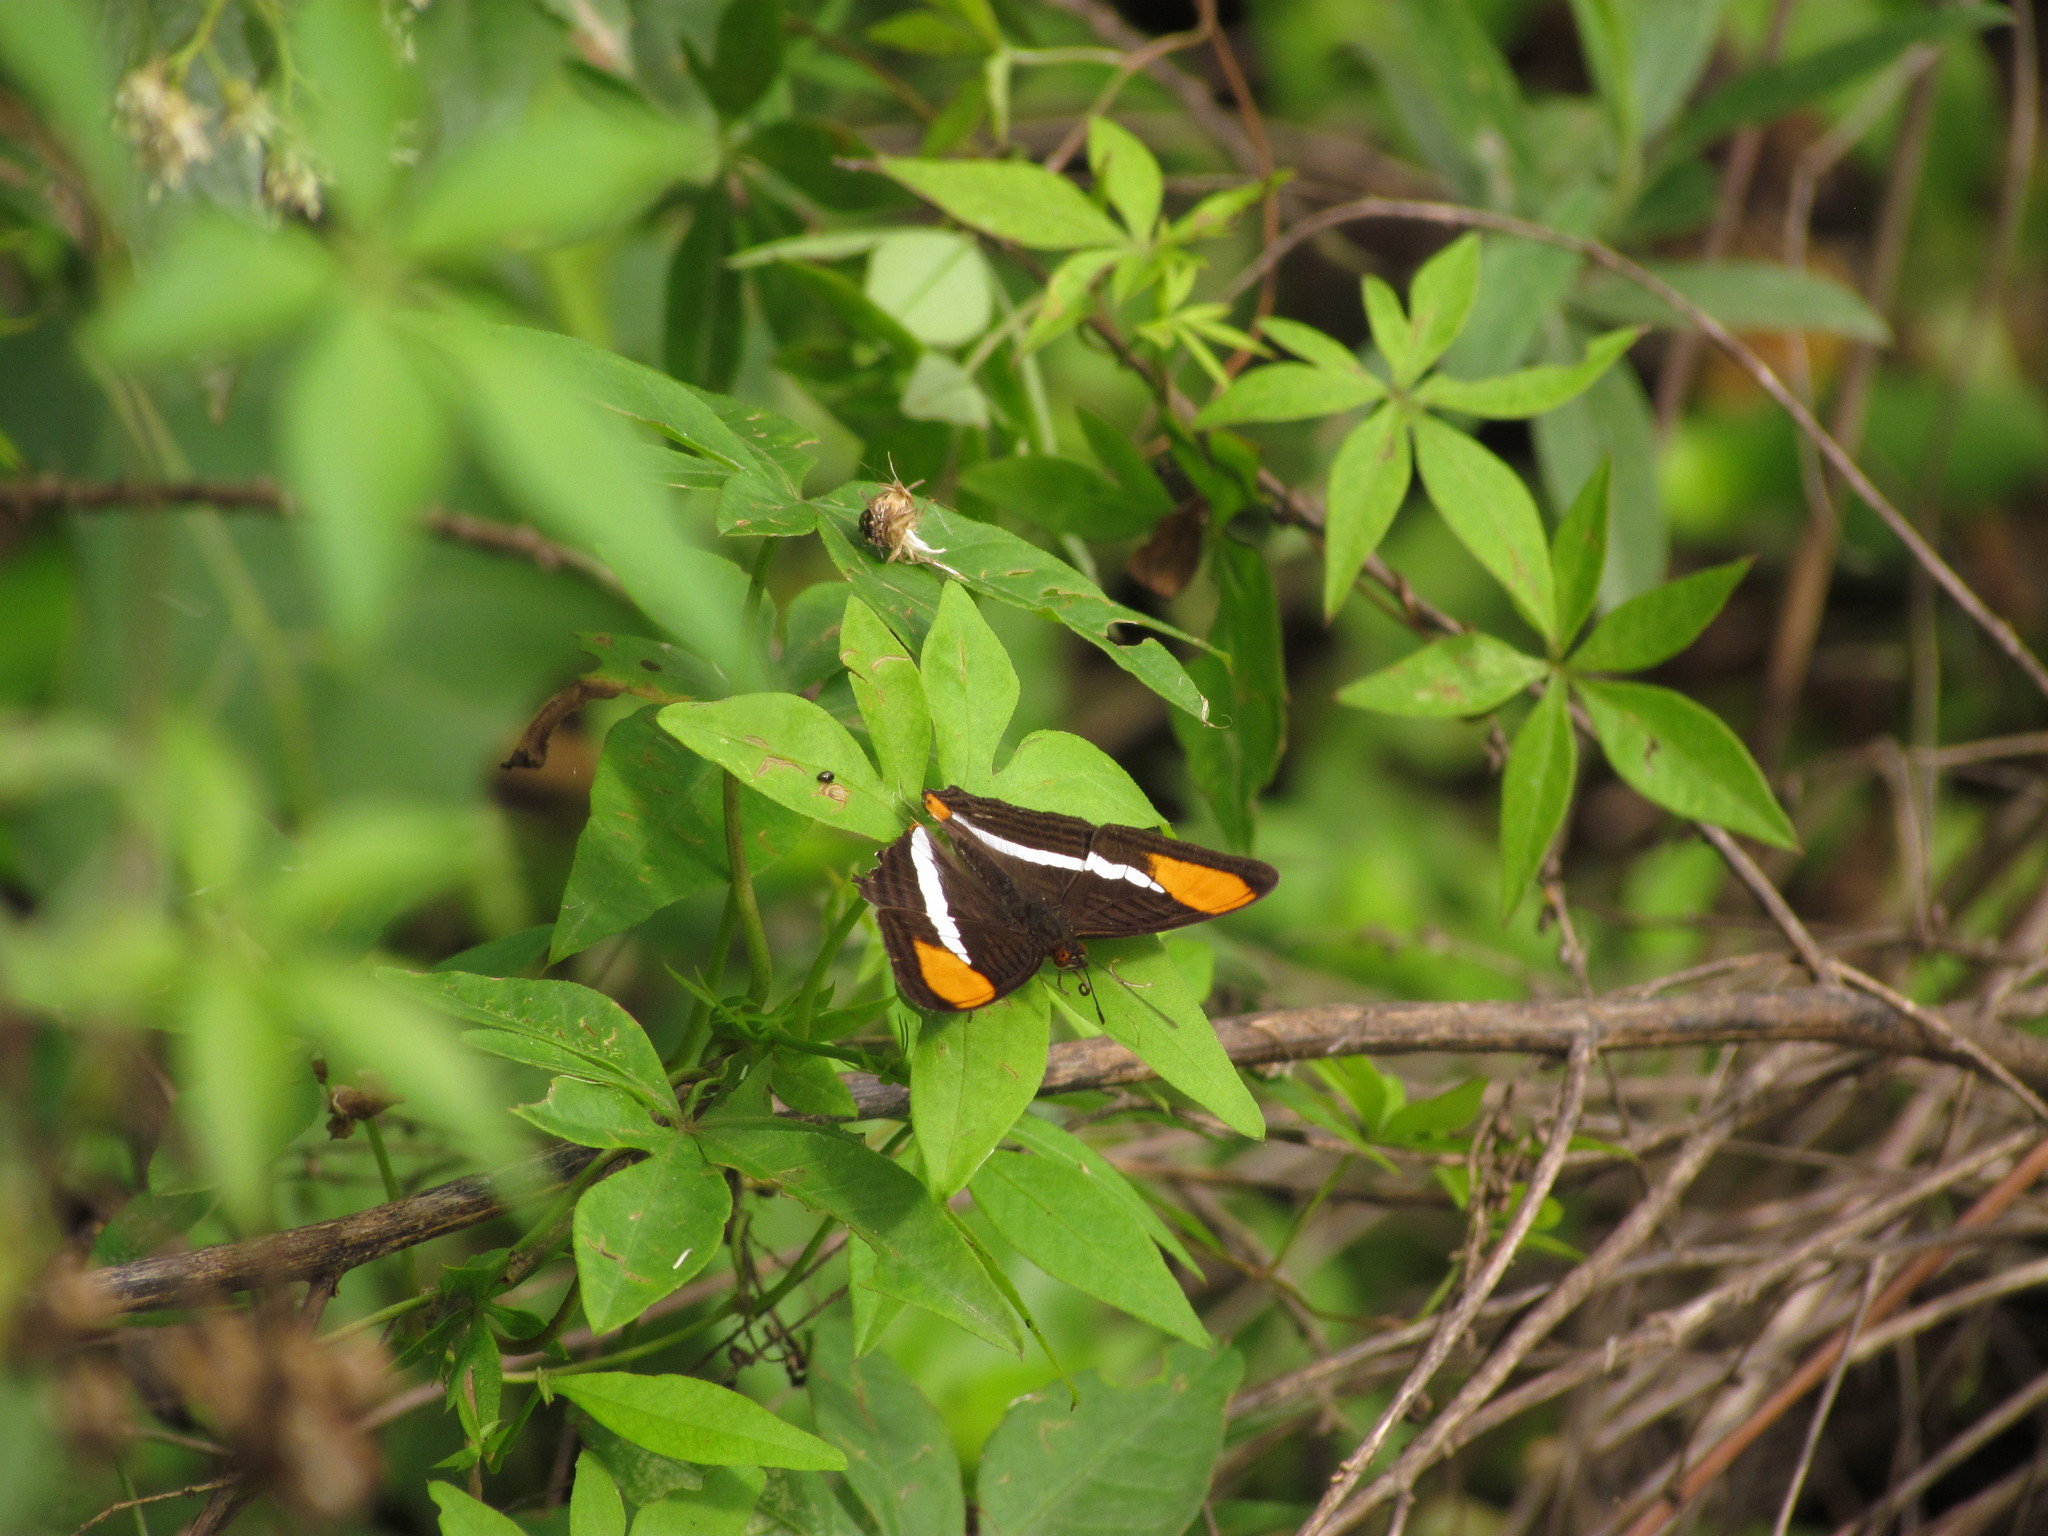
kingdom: Animalia
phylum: Arthropoda
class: Insecta
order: Lepidoptera
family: Nymphalidae
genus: Limenitis
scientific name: Limenitis syma
